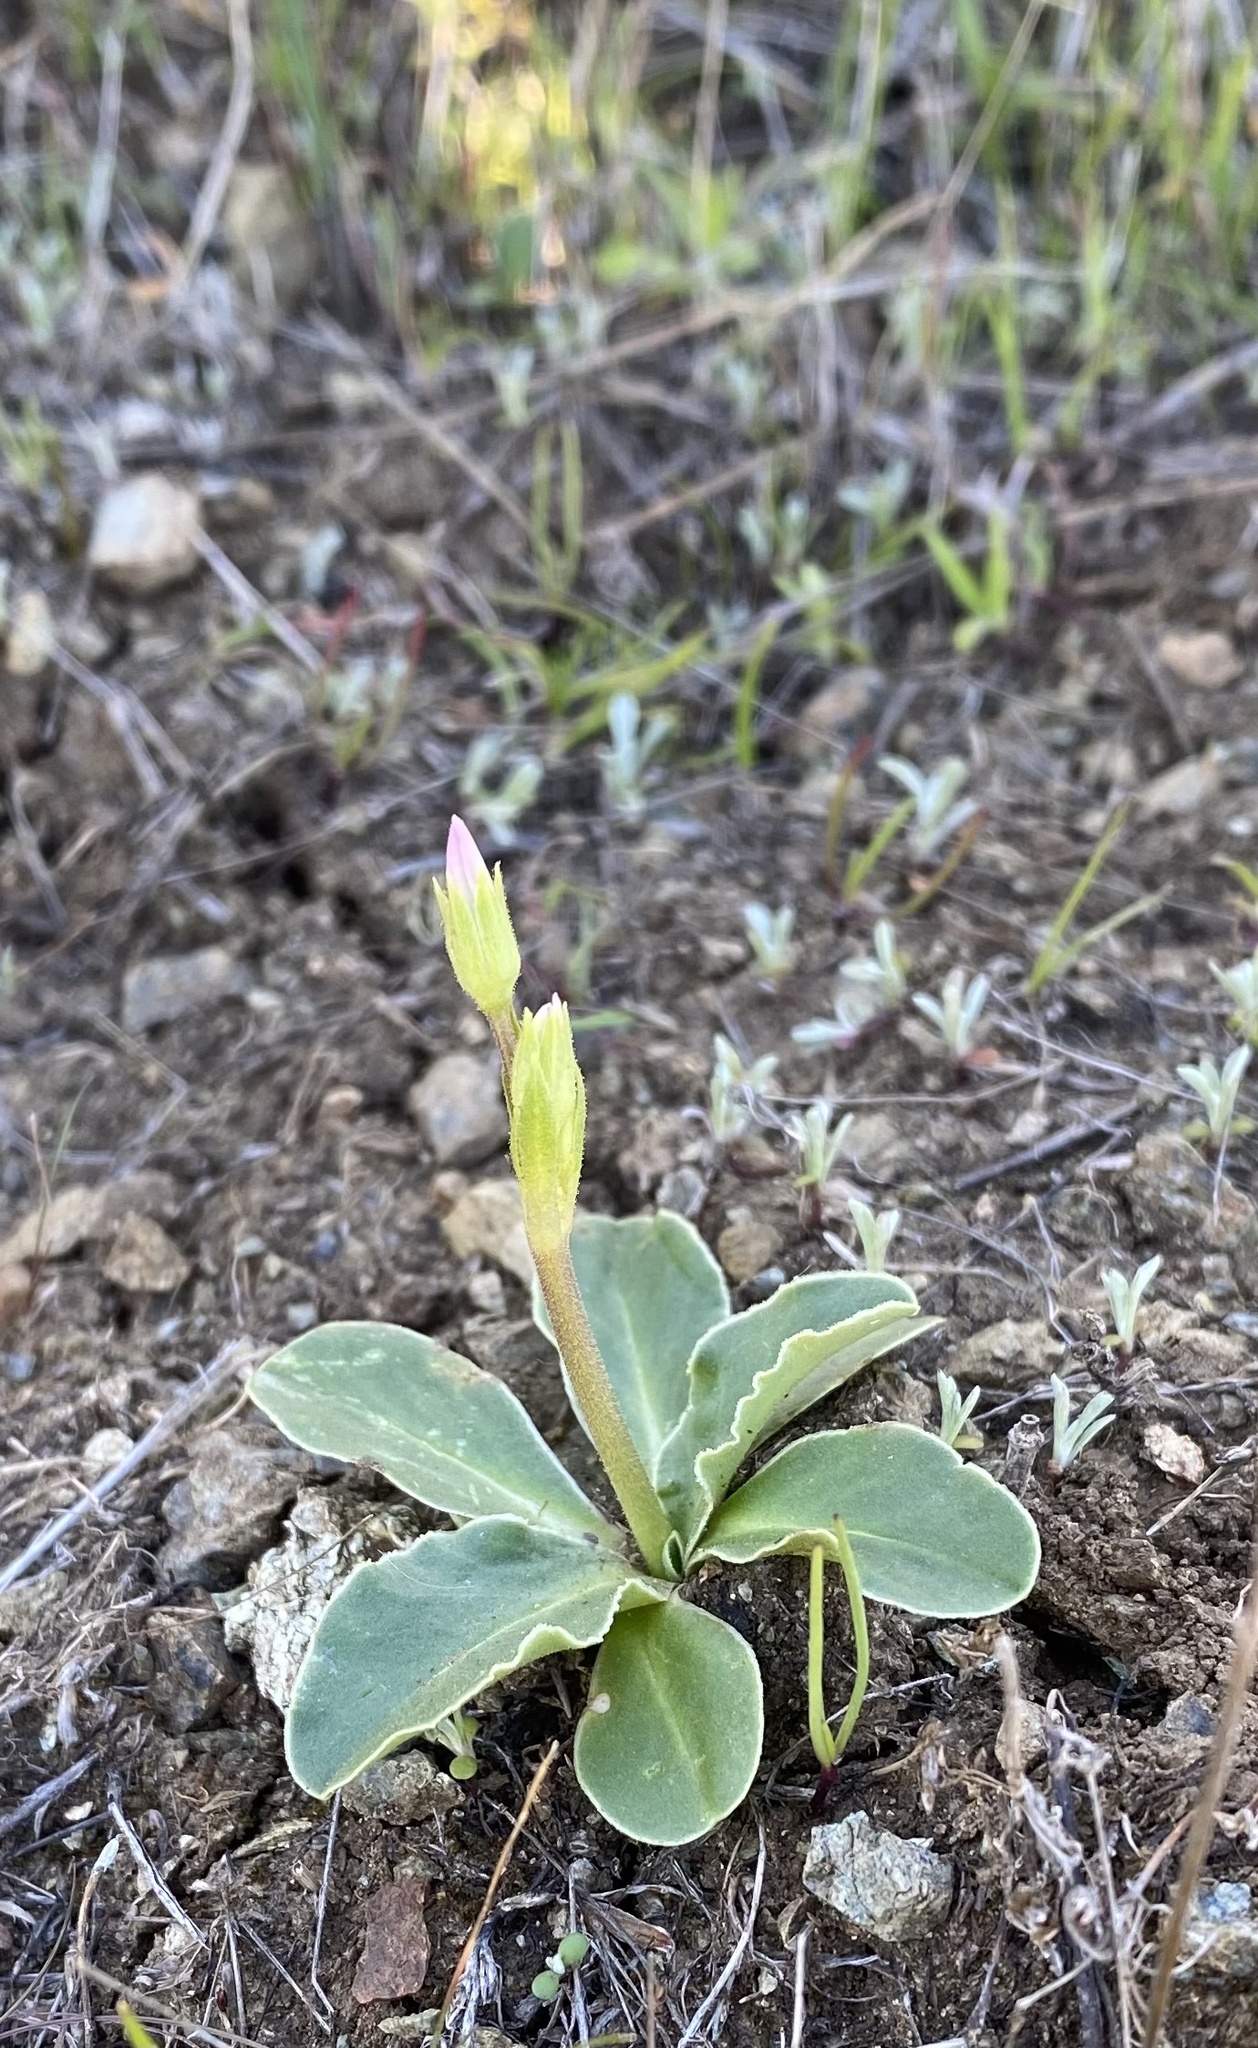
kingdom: Plantae
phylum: Tracheophyta
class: Magnoliopsida
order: Ericales
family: Primulaceae
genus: Dodecatheon
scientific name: Dodecatheon clevelandii
